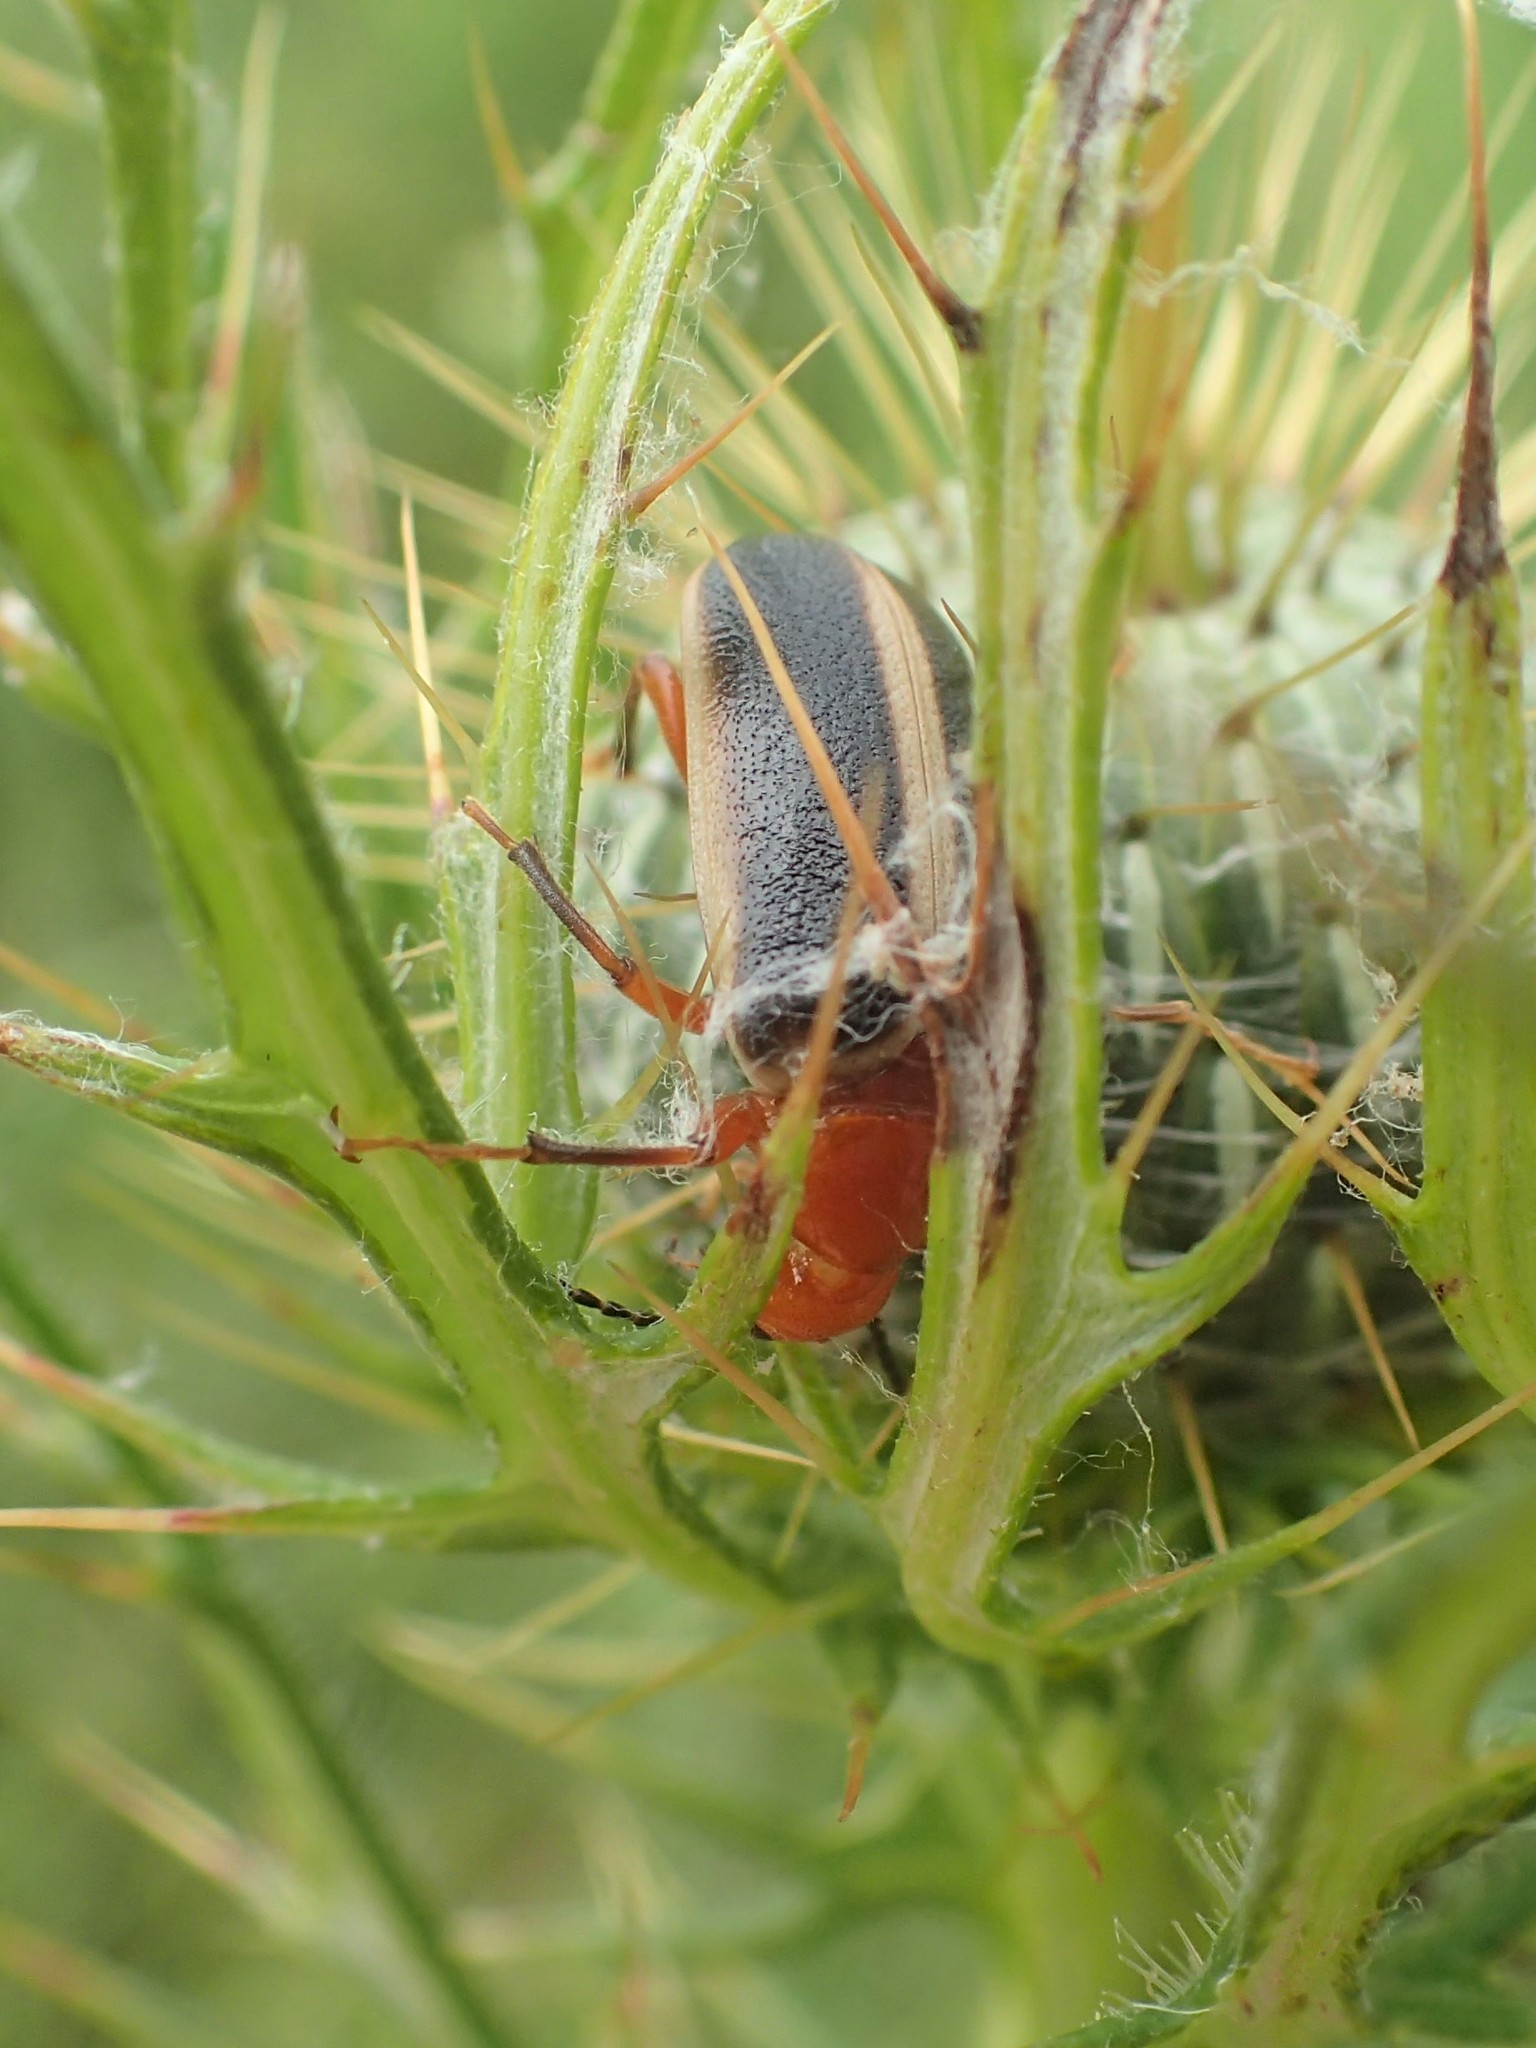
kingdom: Animalia
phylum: Arthropoda
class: Insecta
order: Coleoptera
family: Meloidae
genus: Zonitis
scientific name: Zonitis bilineata
